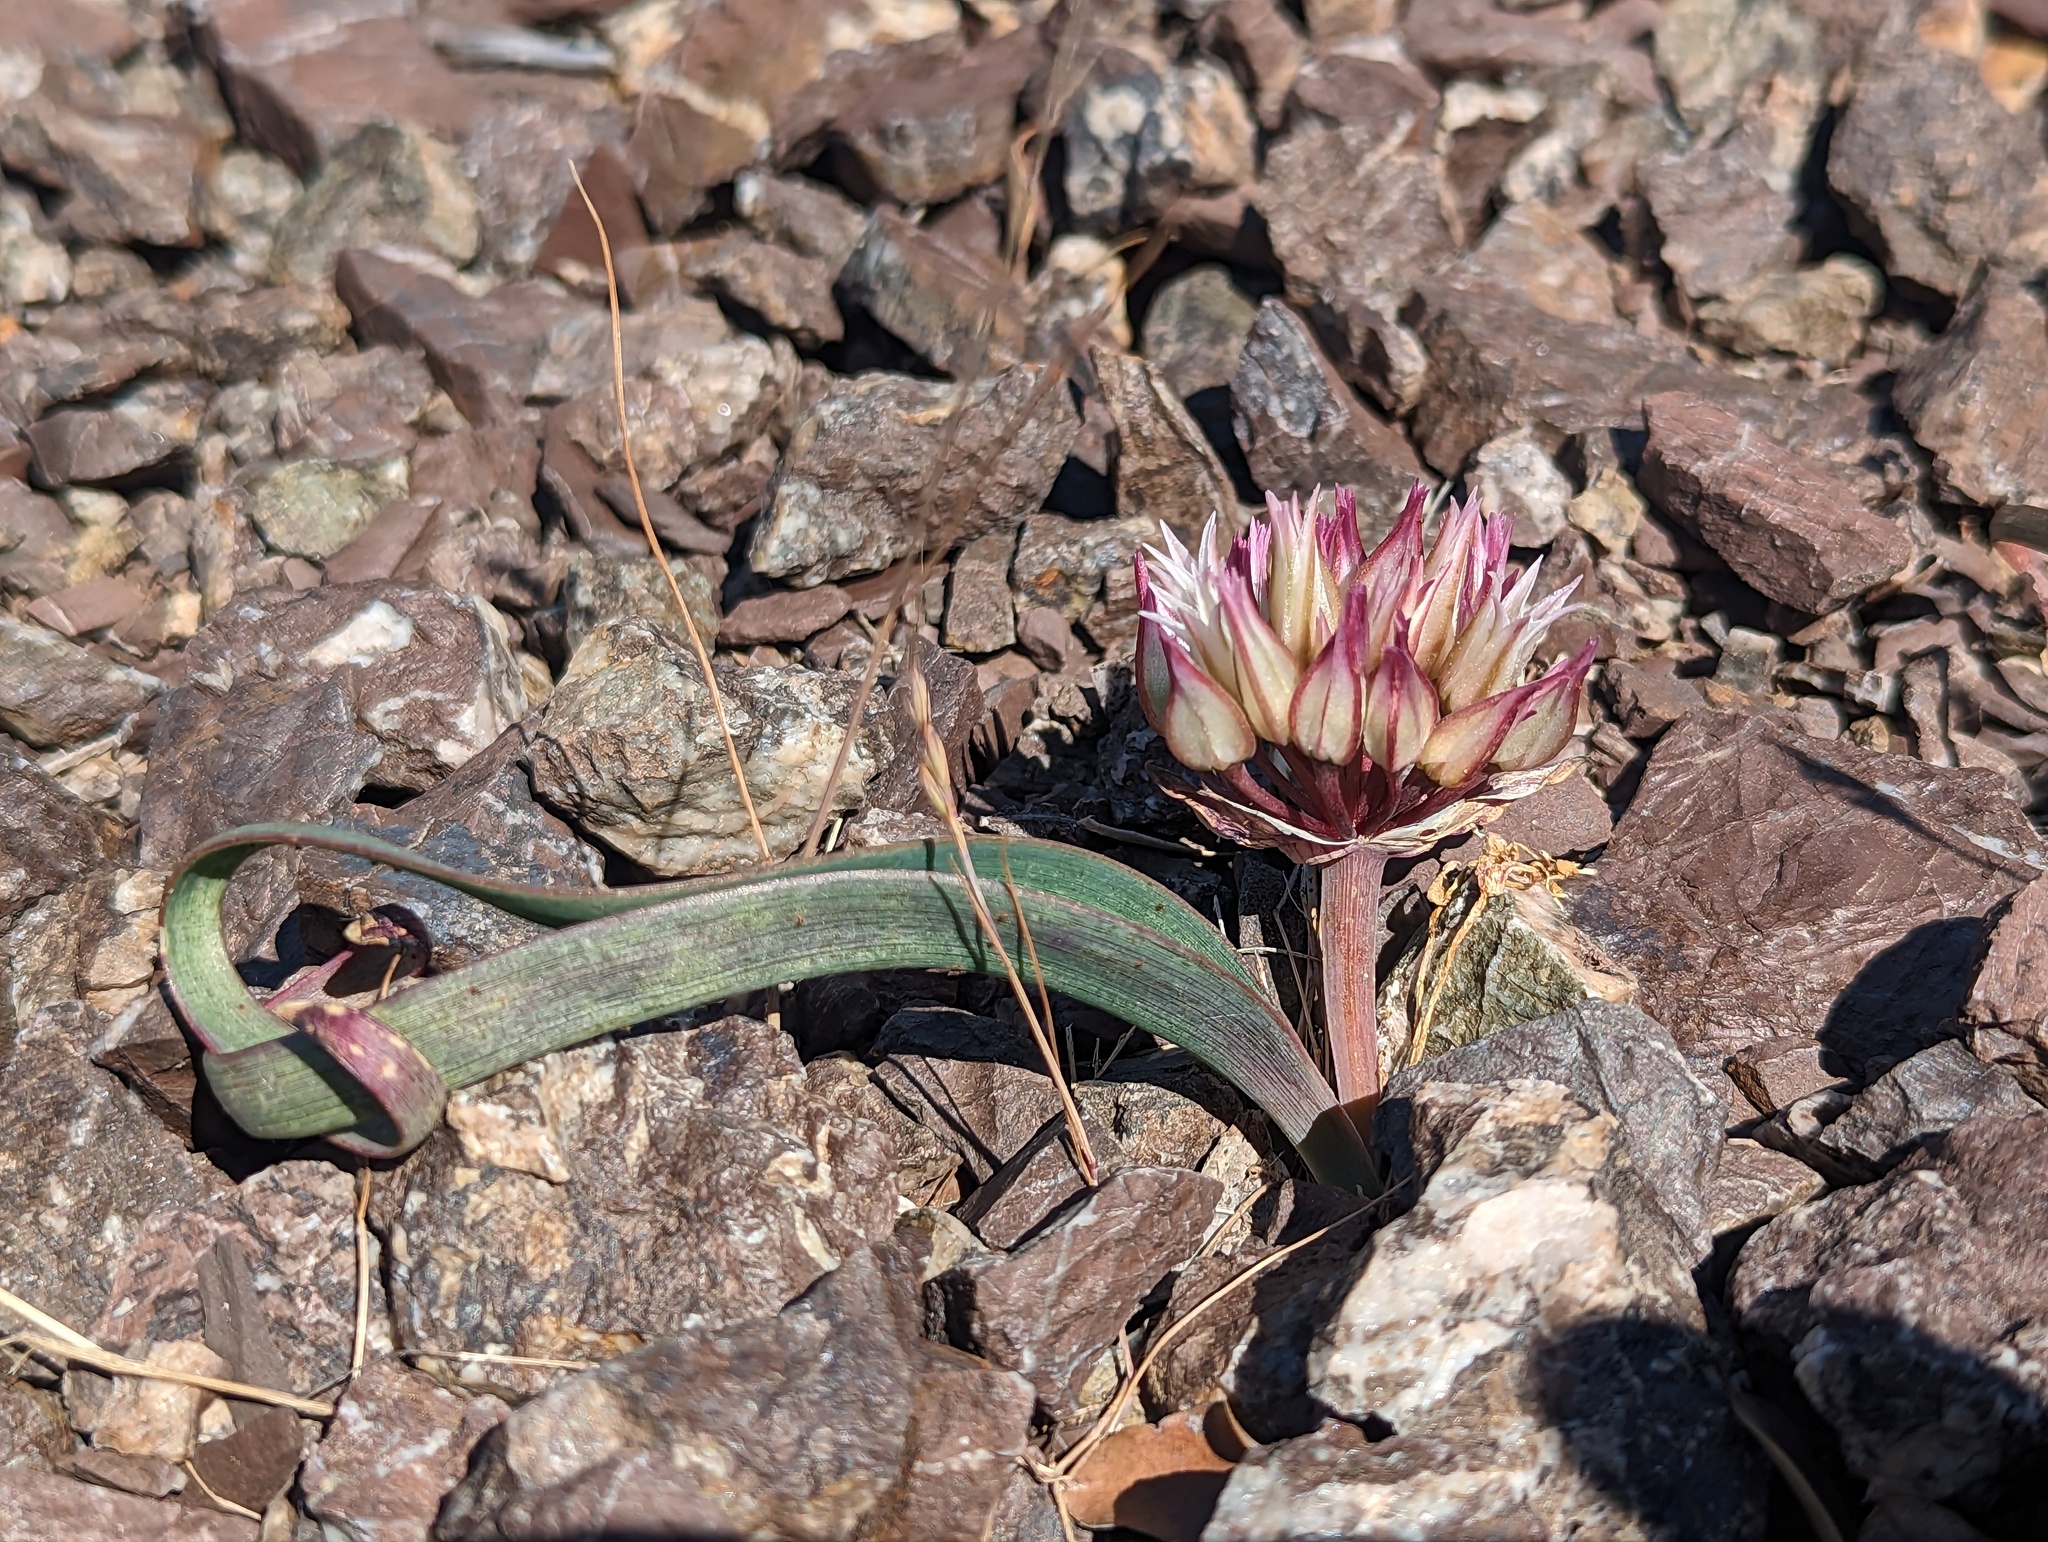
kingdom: Plantae
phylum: Tracheophyta
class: Liliopsida
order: Asparagales
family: Amaryllidaceae
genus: Allium
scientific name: Allium falcifolium
